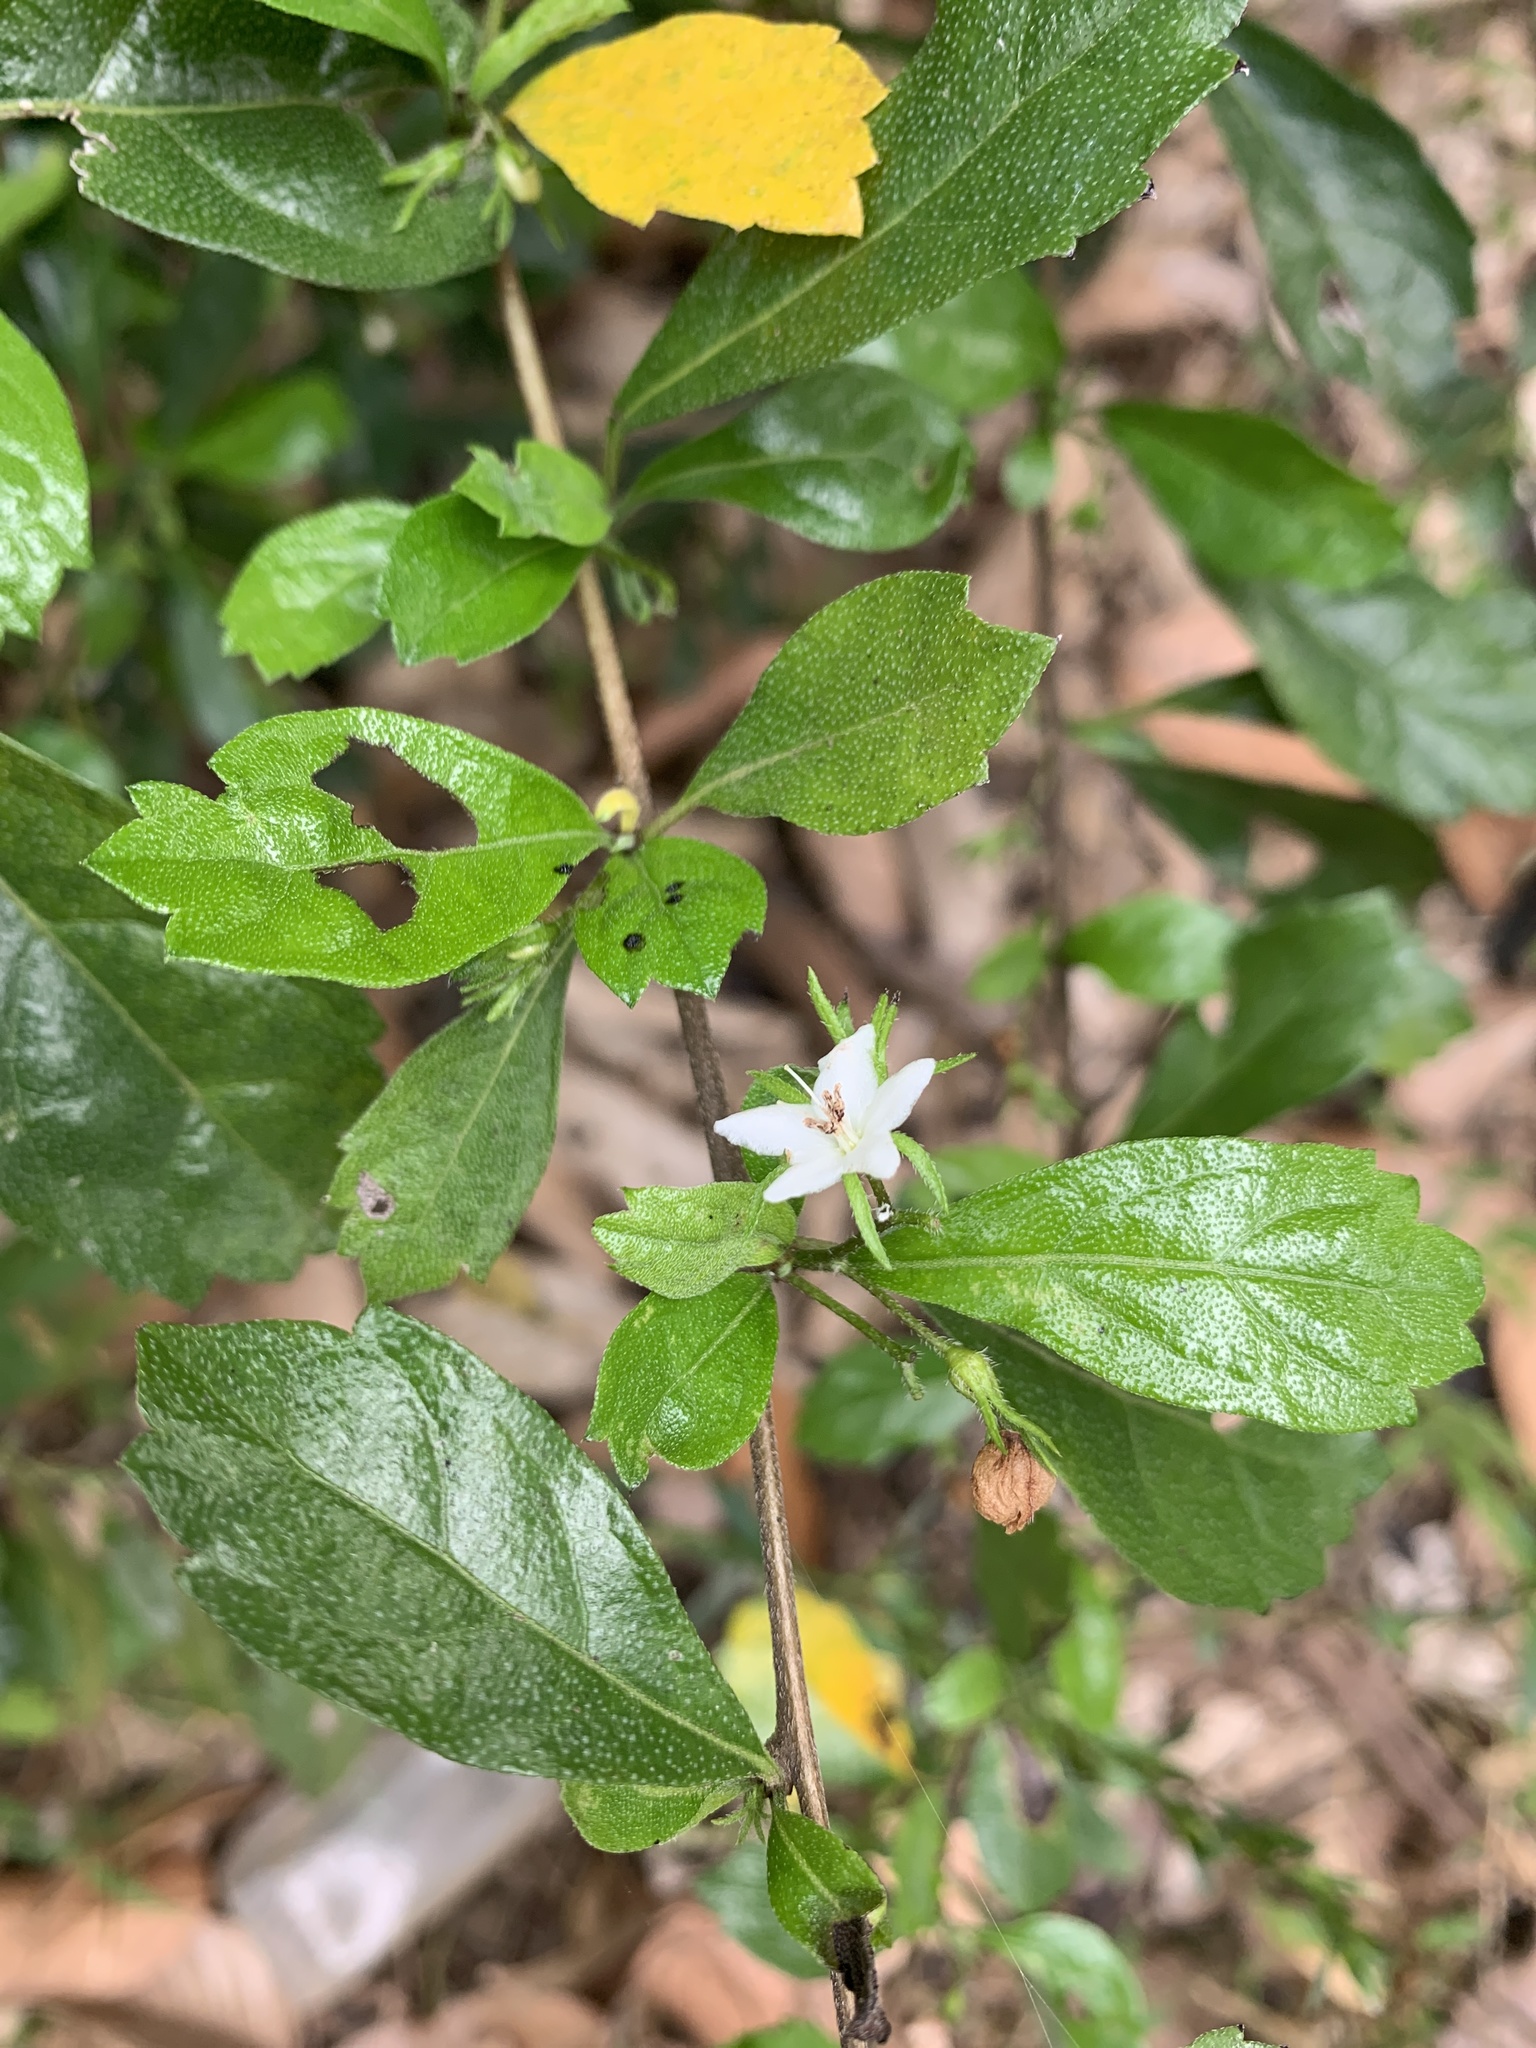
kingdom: Plantae
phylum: Tracheophyta
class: Magnoliopsida
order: Boraginales
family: Ehretiaceae
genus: Ehretia
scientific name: Ehretia microphylla
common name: Fukien-tea
